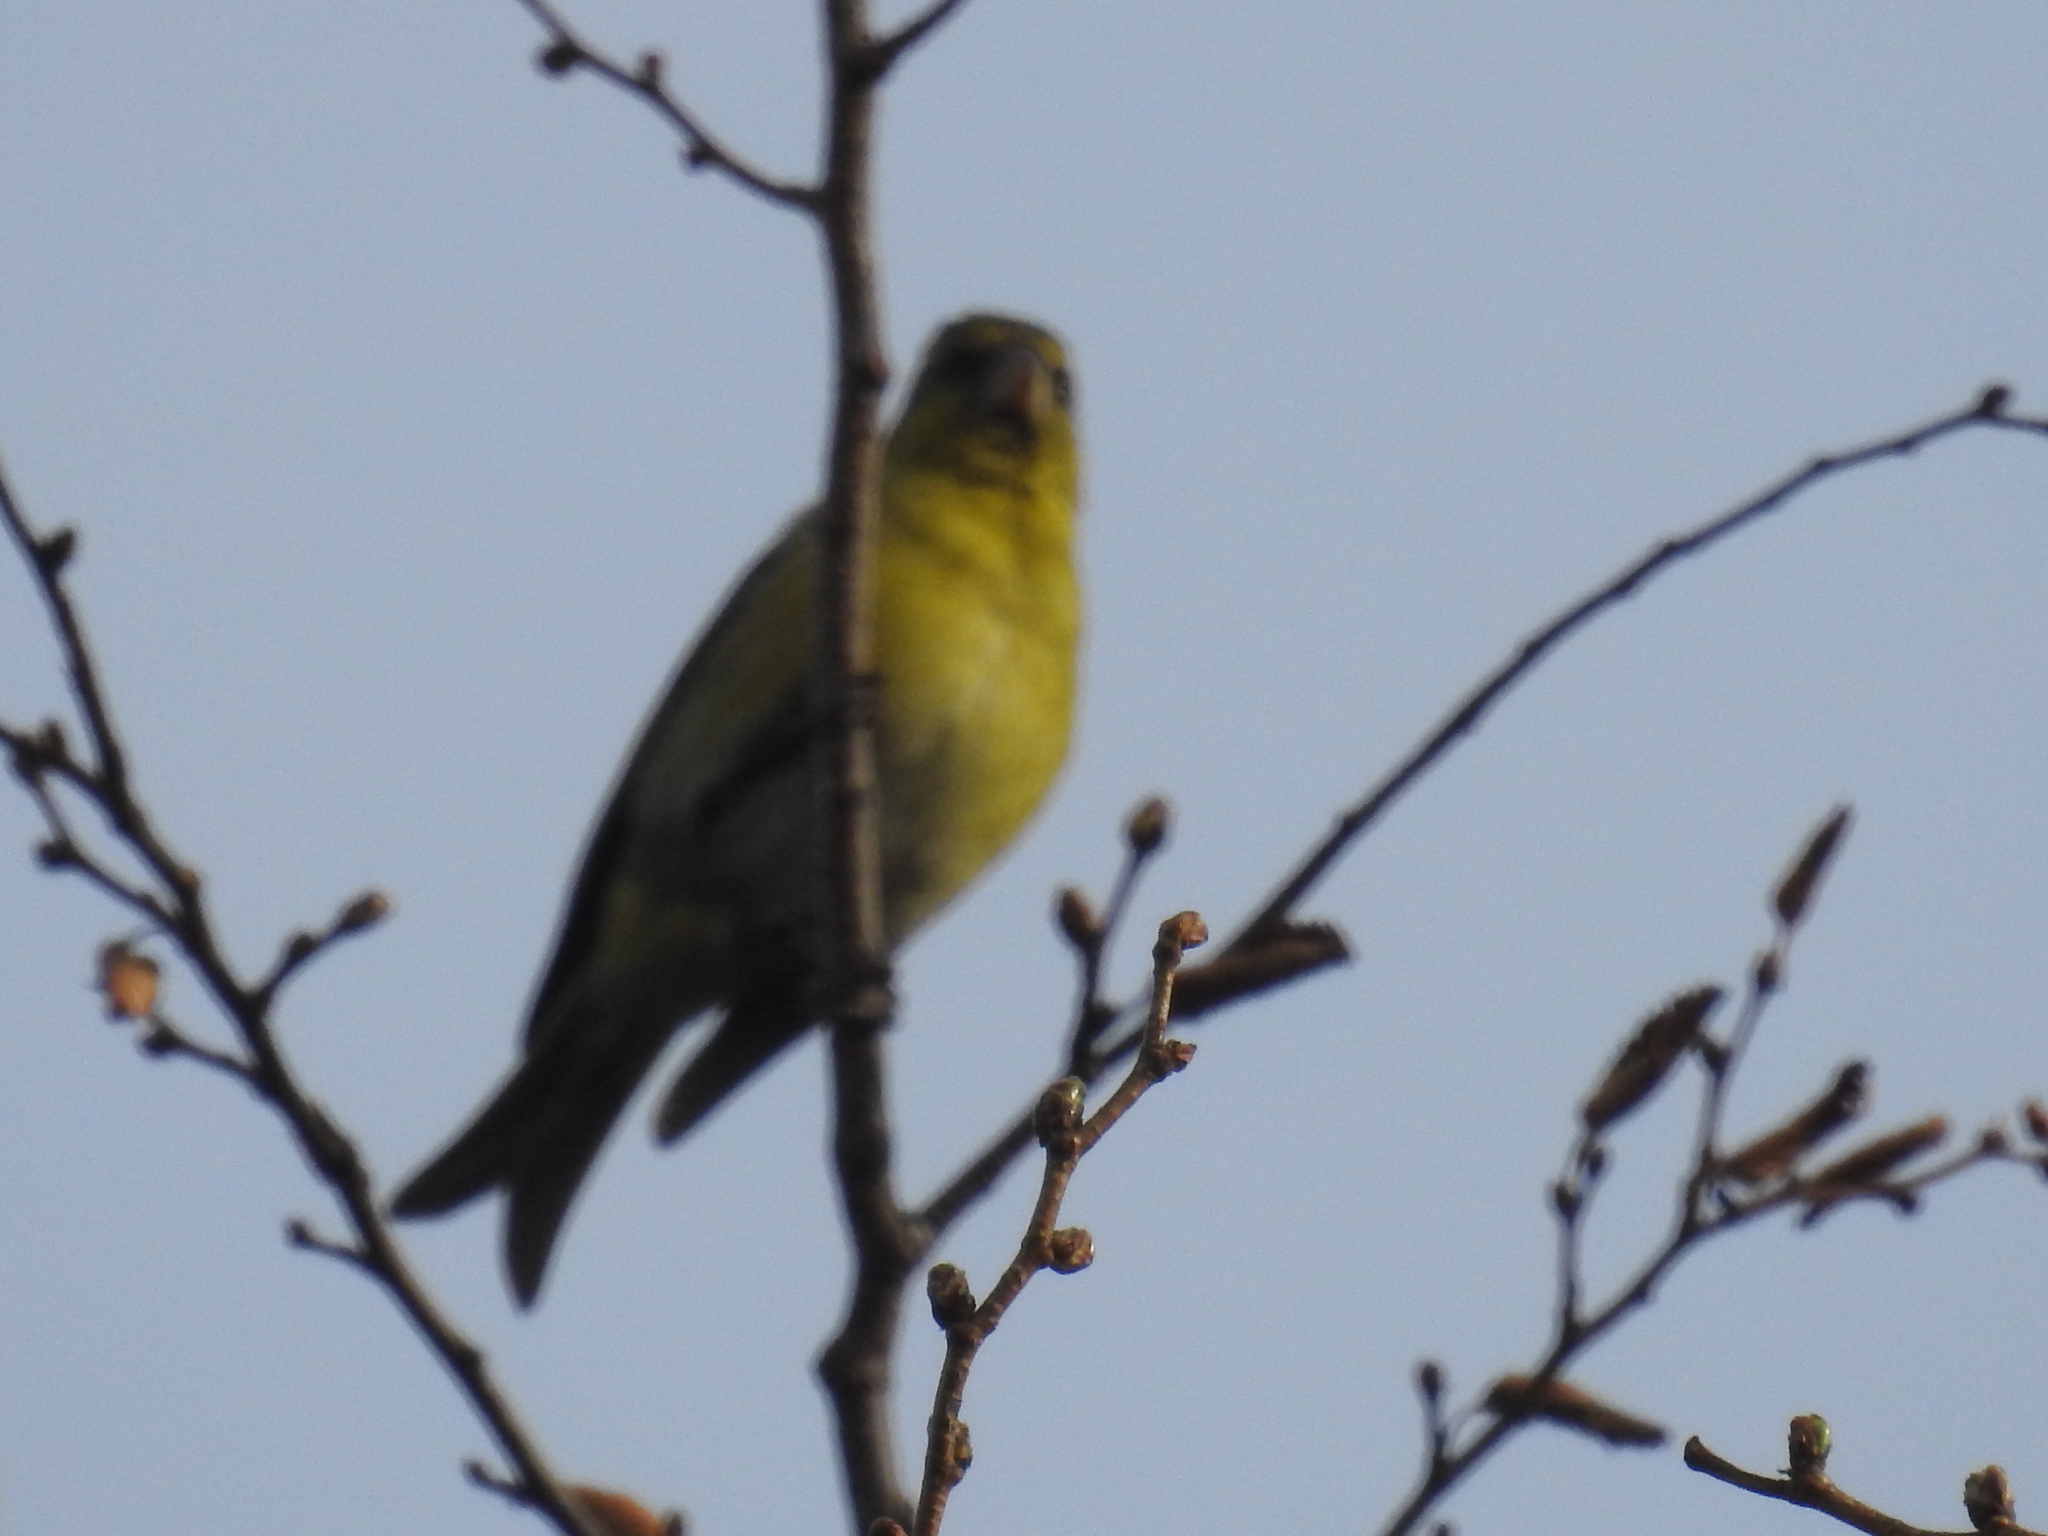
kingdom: Animalia
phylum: Chordata
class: Aves
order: Passeriformes
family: Fringillidae
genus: Spinus
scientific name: Spinus barbatus
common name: Black-chinned siskin
